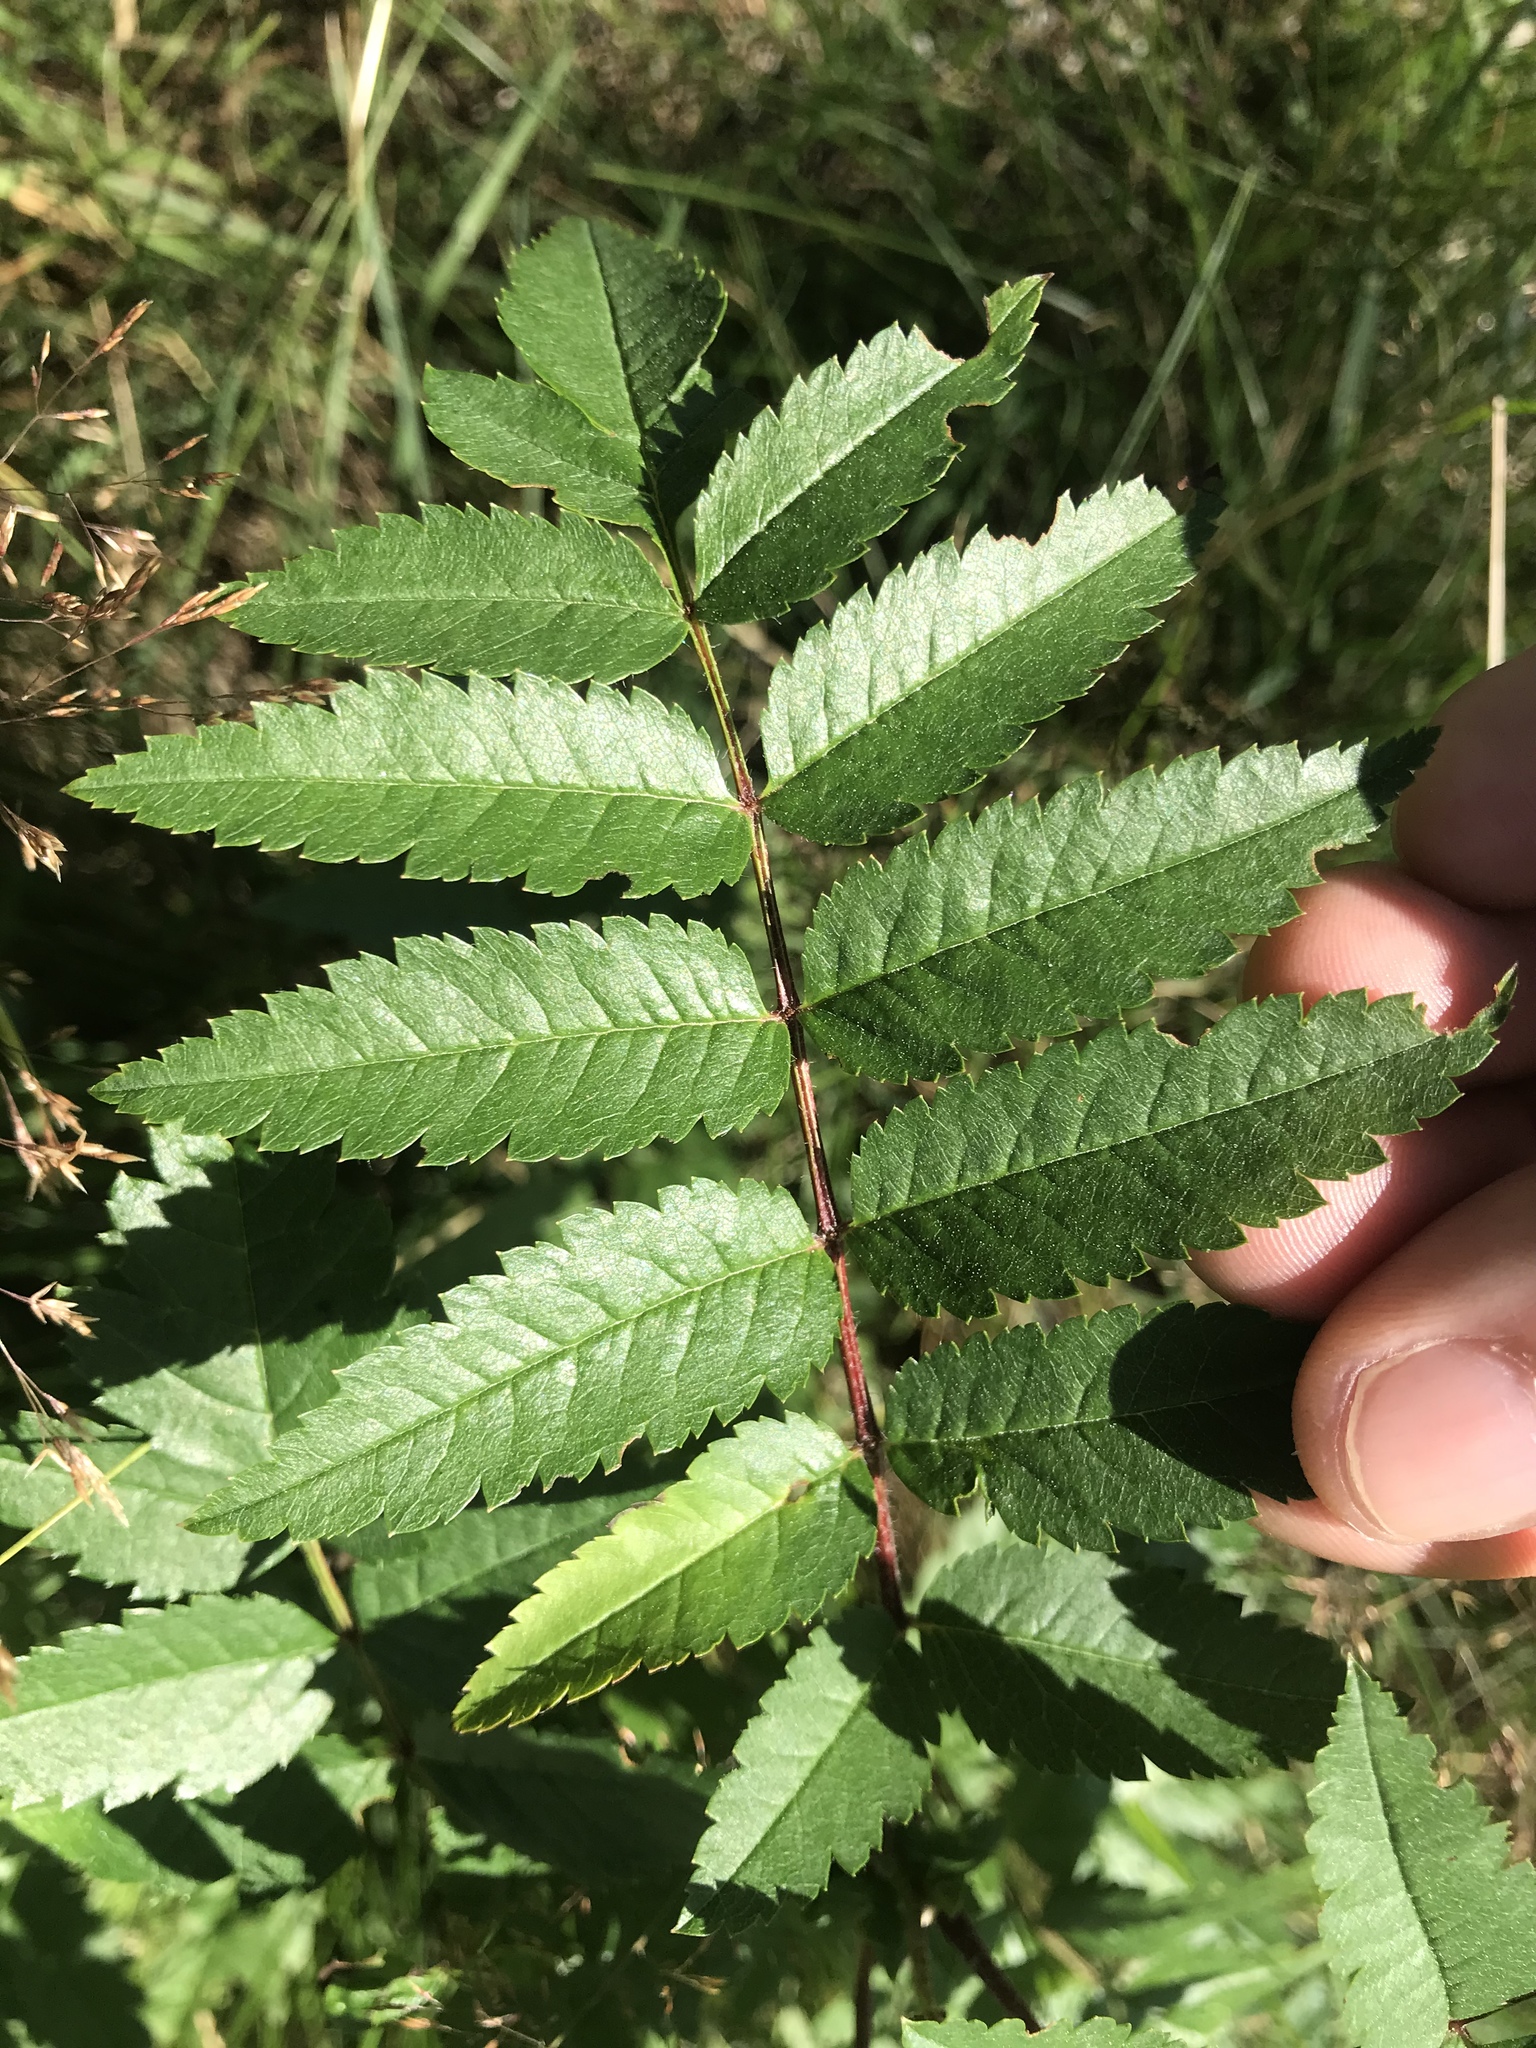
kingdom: Plantae
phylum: Tracheophyta
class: Magnoliopsida
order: Rosales
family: Rosaceae
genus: Sorbus
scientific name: Sorbus aucuparia
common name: Rowan
